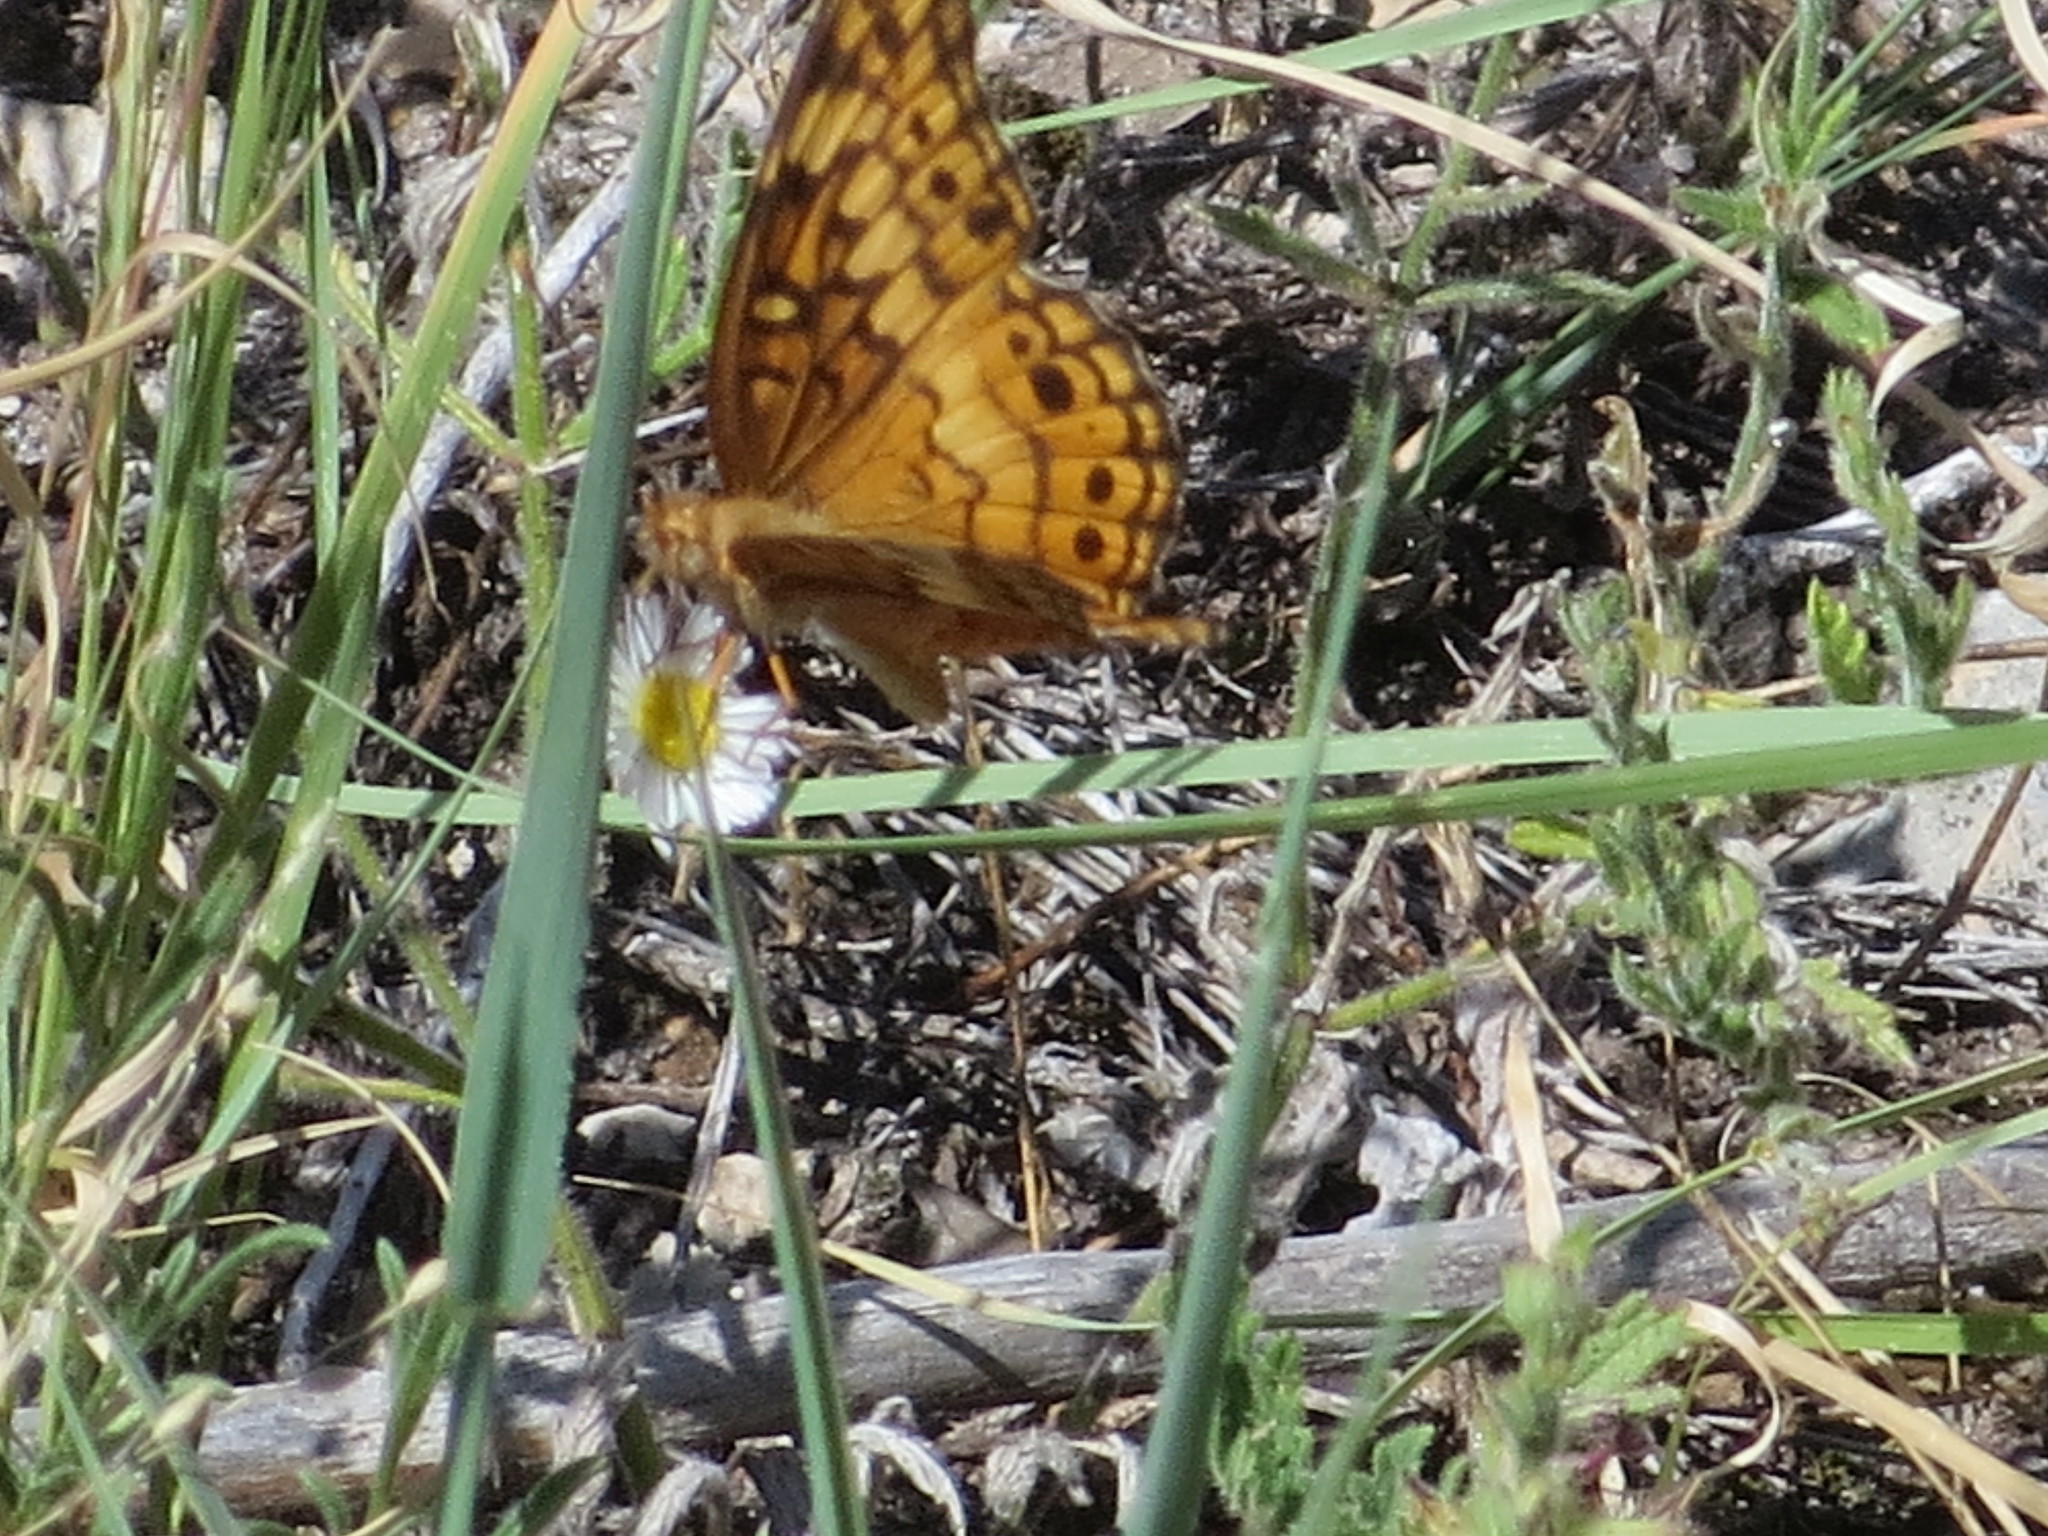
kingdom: Animalia
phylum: Arthropoda
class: Insecta
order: Lepidoptera
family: Nymphalidae
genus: Euptoieta
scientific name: Euptoieta claudia
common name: Variegated fritillary
